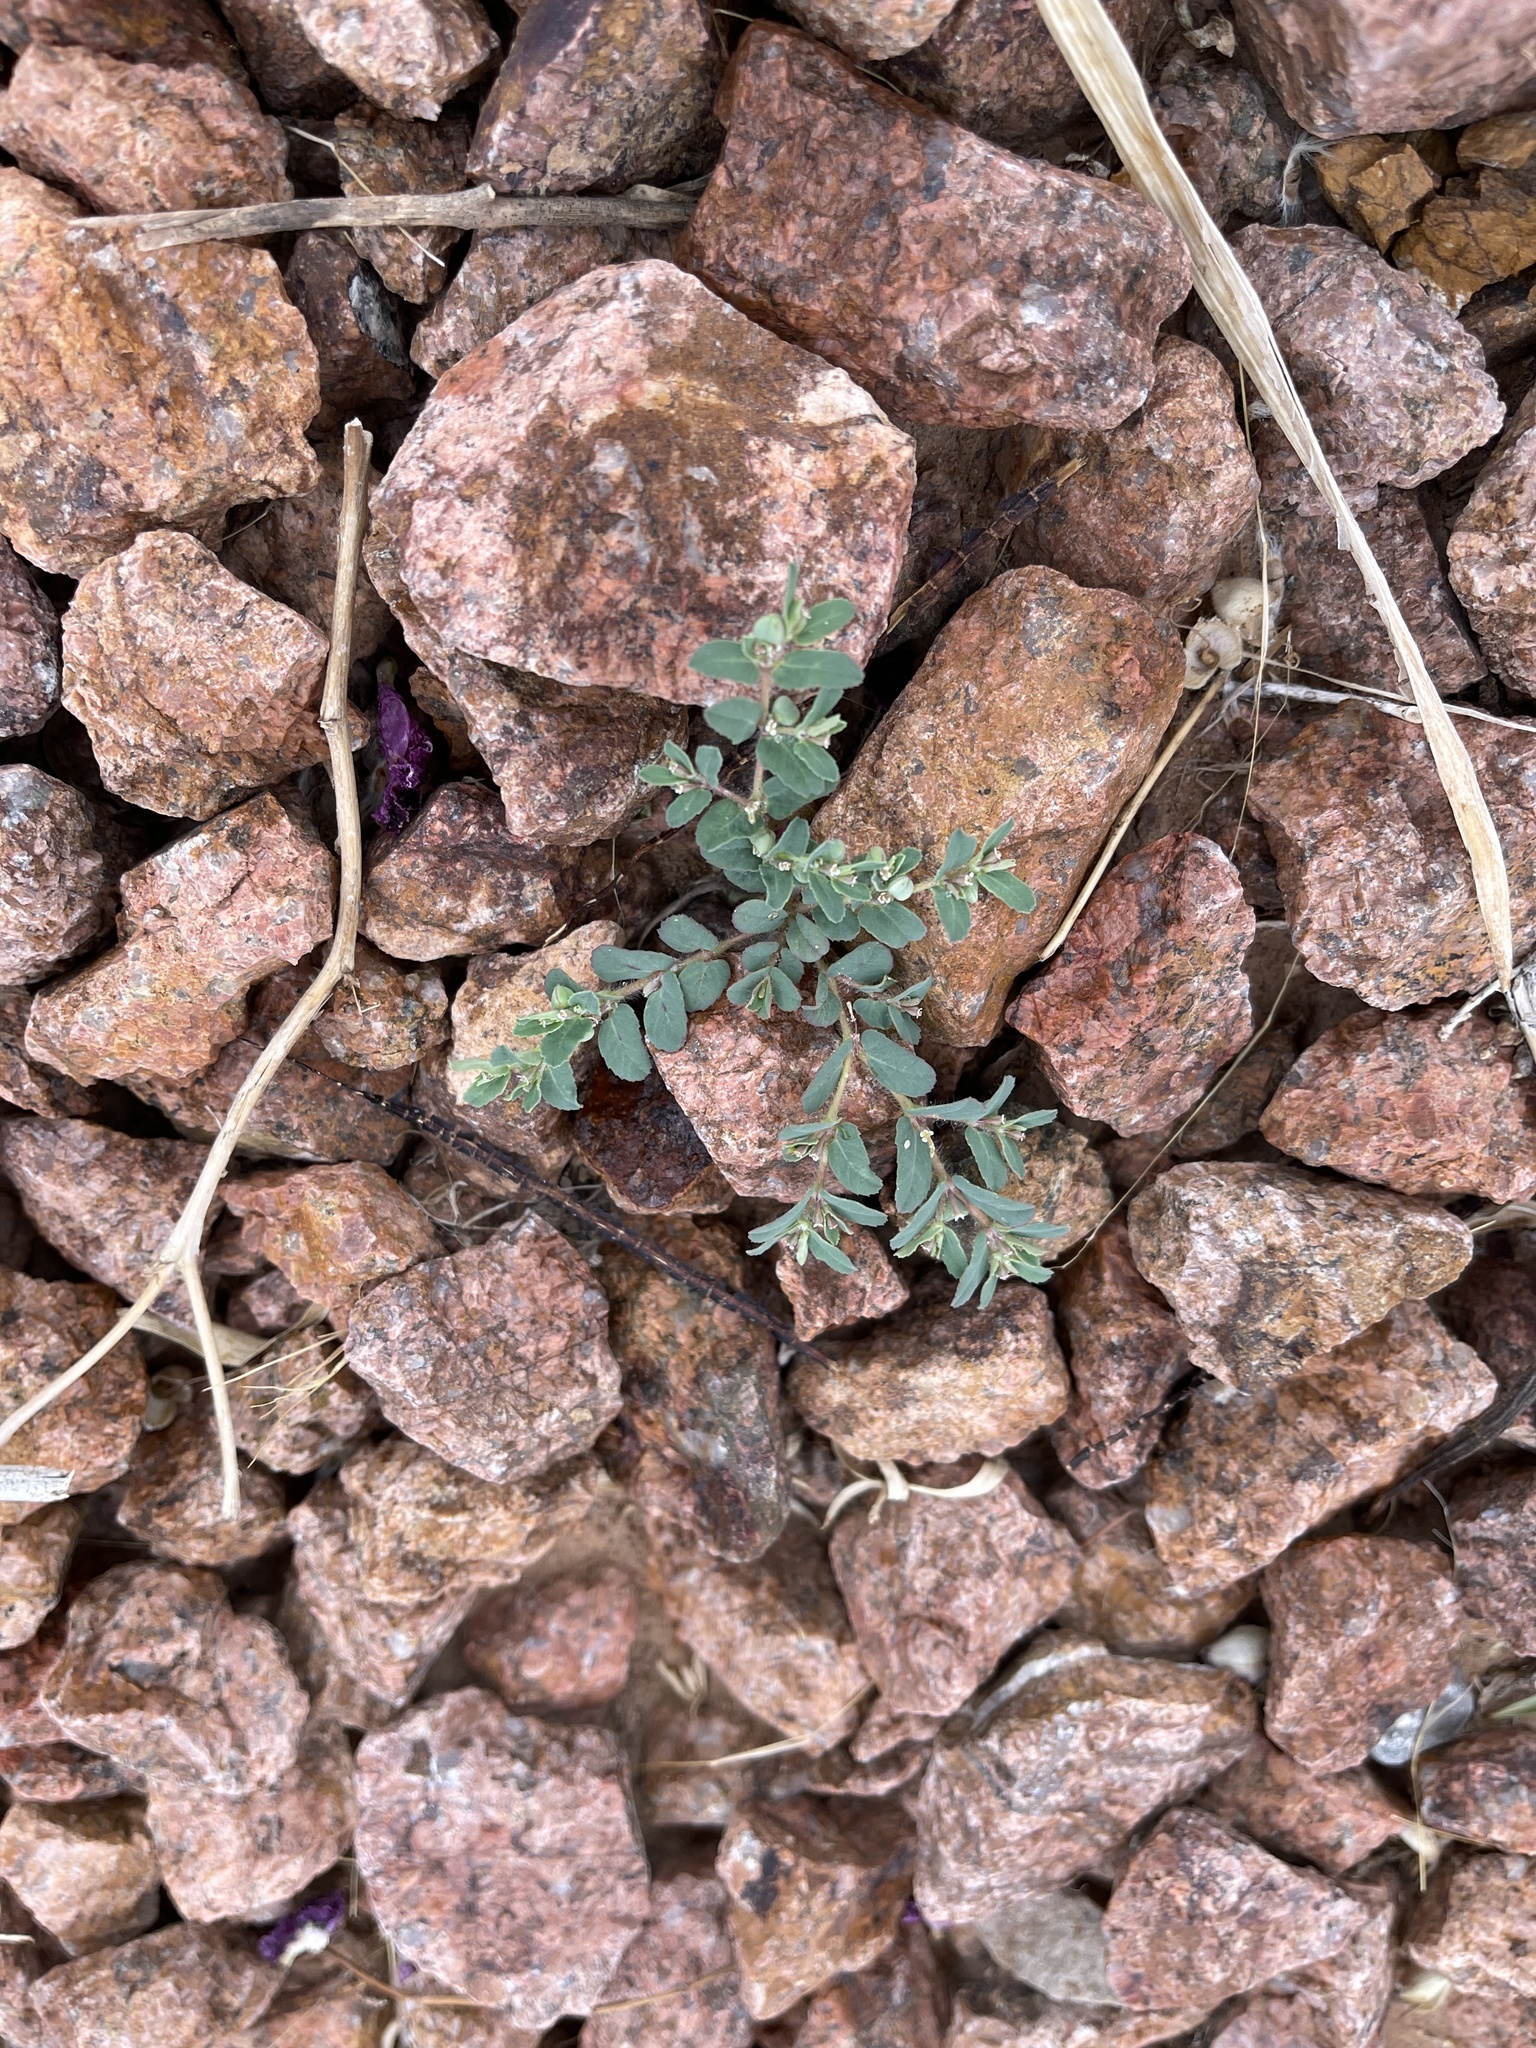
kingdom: Plantae
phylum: Tracheophyta
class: Magnoliopsida
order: Malpighiales
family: Euphorbiaceae
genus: Euphorbia
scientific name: Euphorbia serrula
